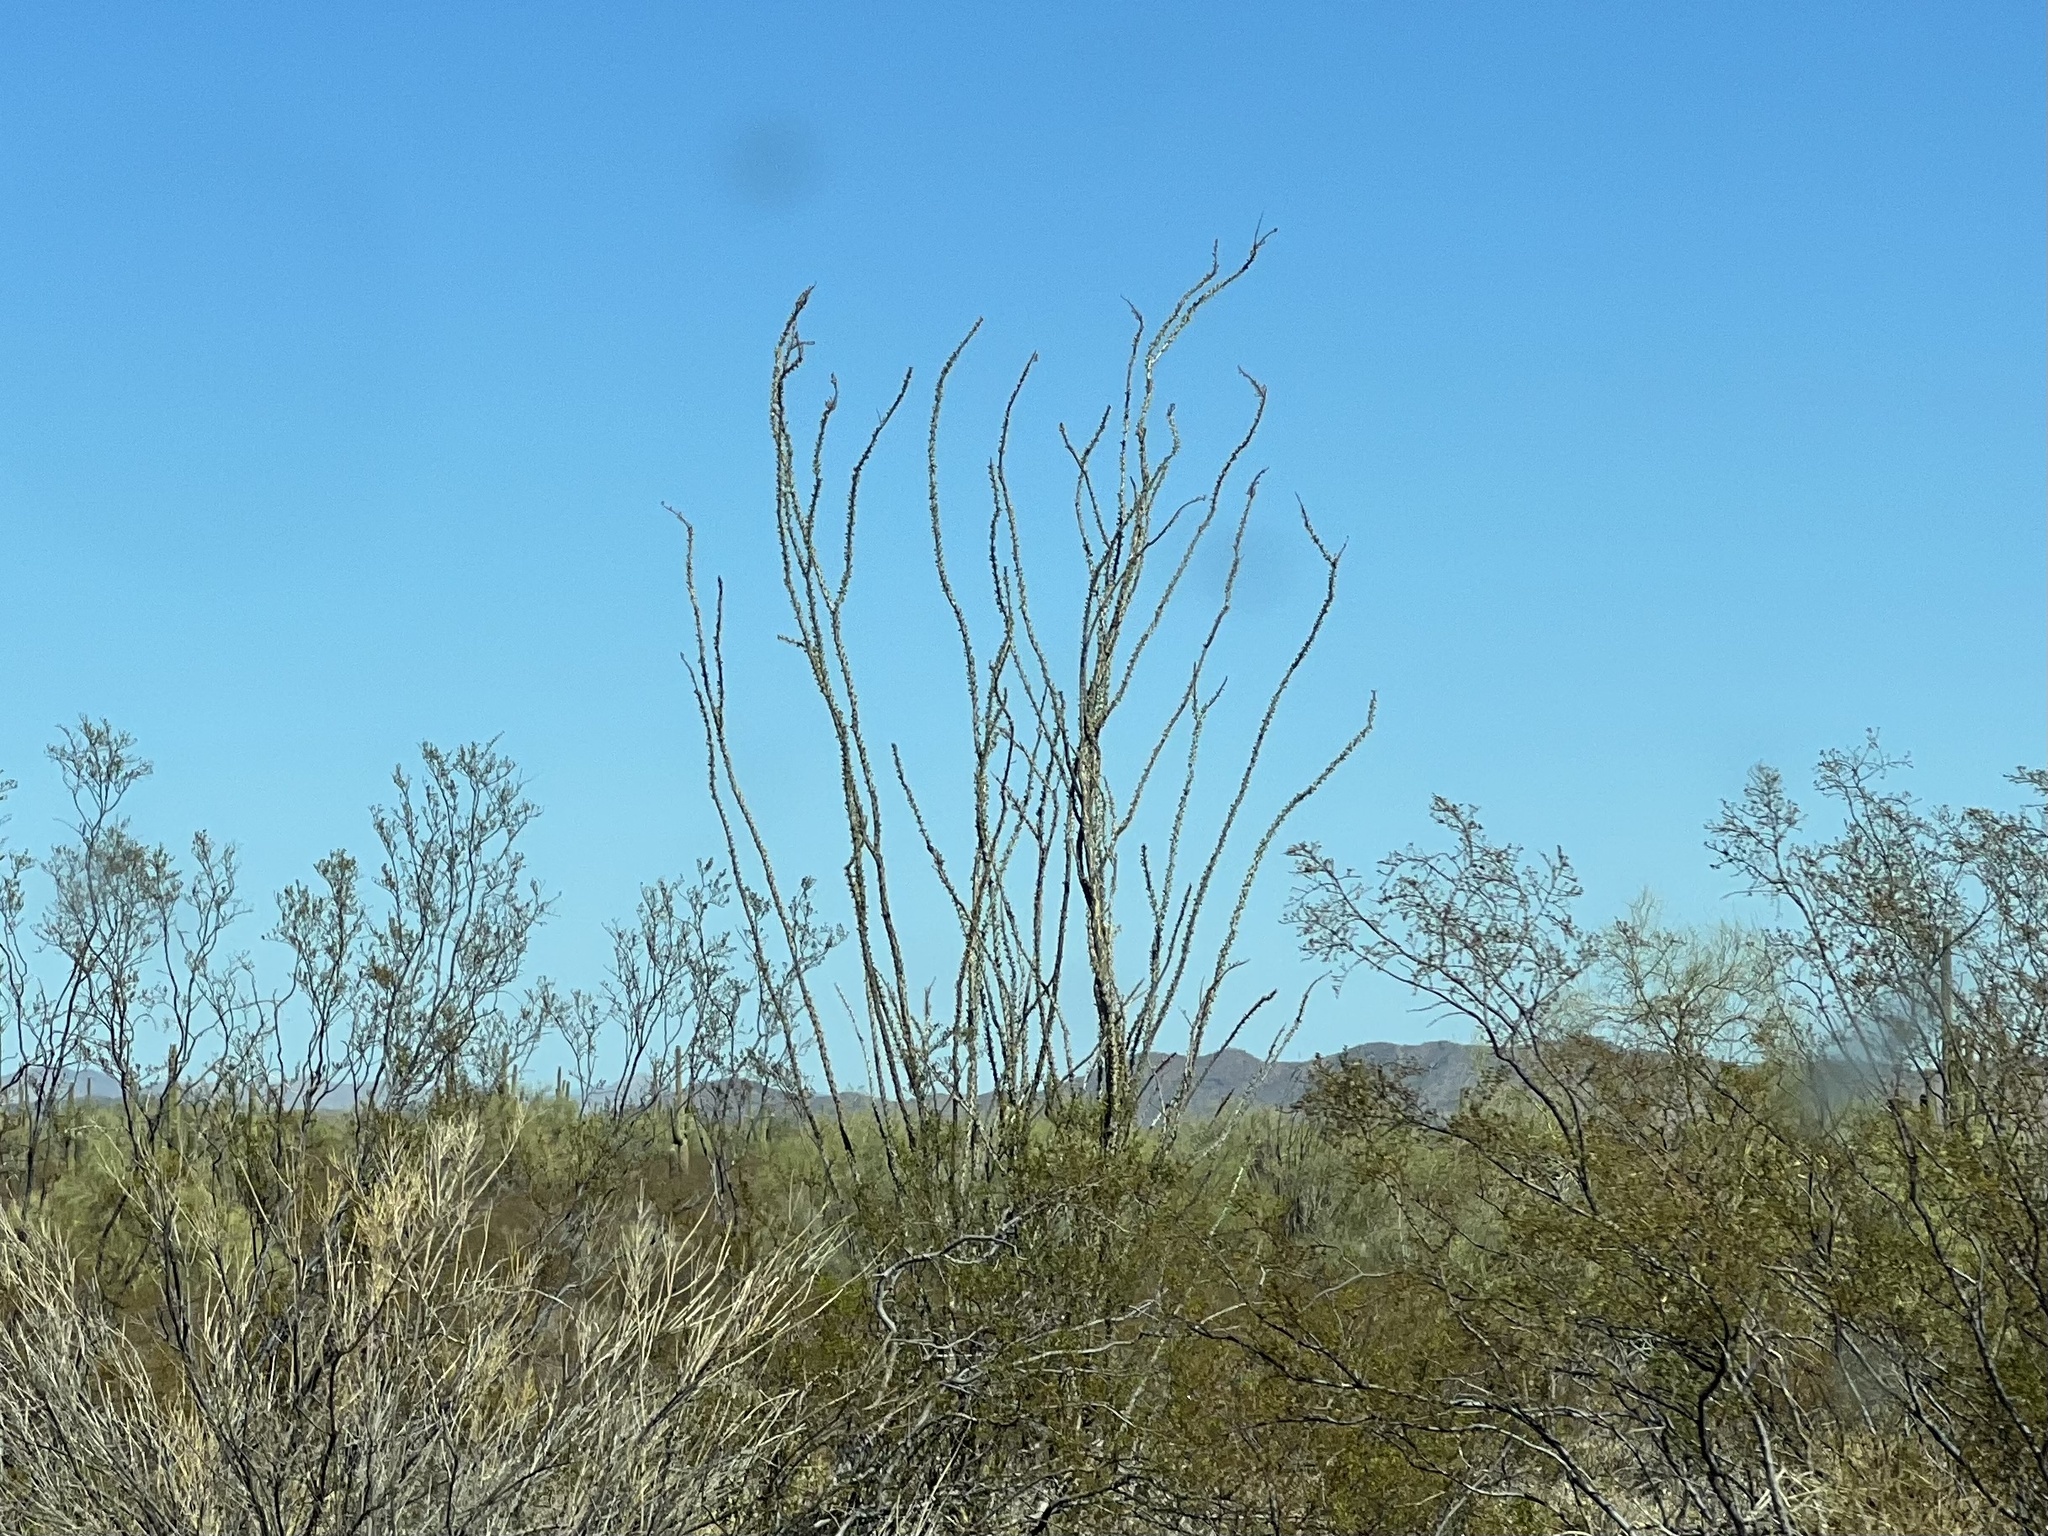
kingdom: Plantae
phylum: Tracheophyta
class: Magnoliopsida
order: Ericales
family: Fouquieriaceae
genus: Fouquieria
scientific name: Fouquieria splendens
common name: Vine-cactus
